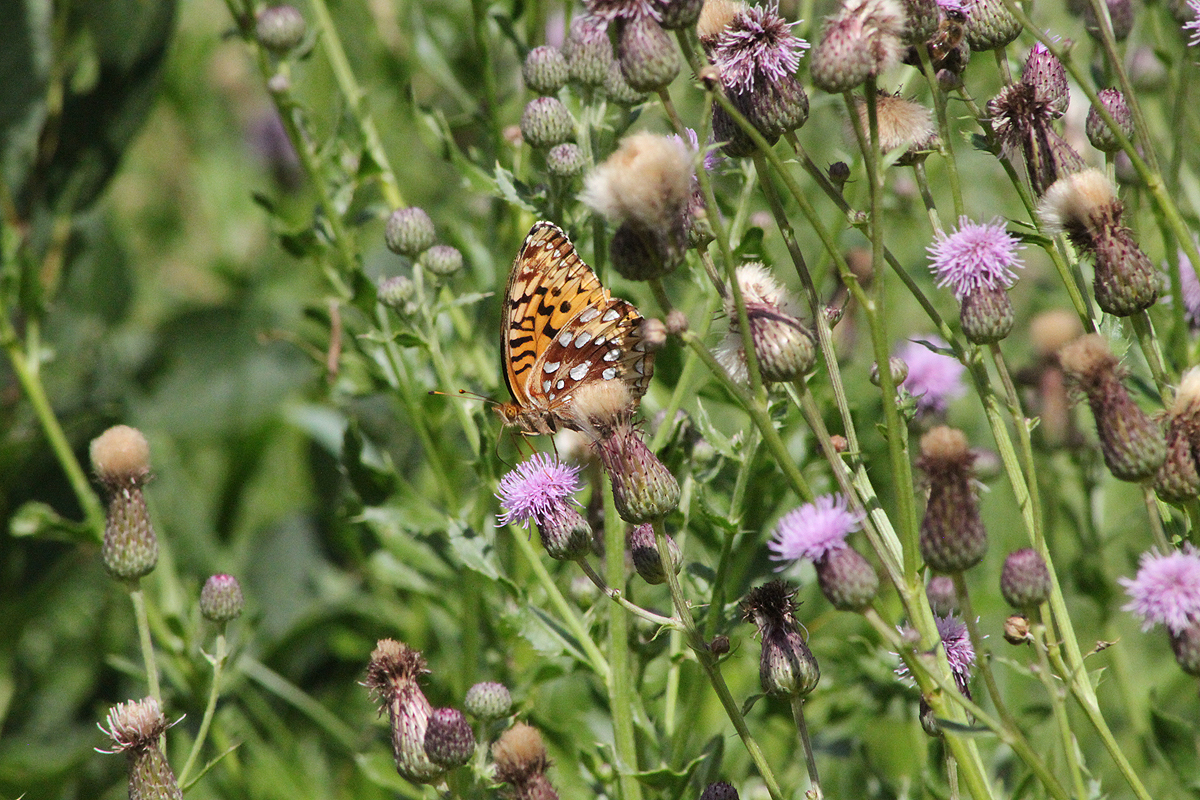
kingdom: Animalia
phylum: Arthropoda
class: Insecta
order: Lepidoptera
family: Nymphalidae
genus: Speyeria
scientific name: Speyeria cybele
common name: Great spangled fritillary
